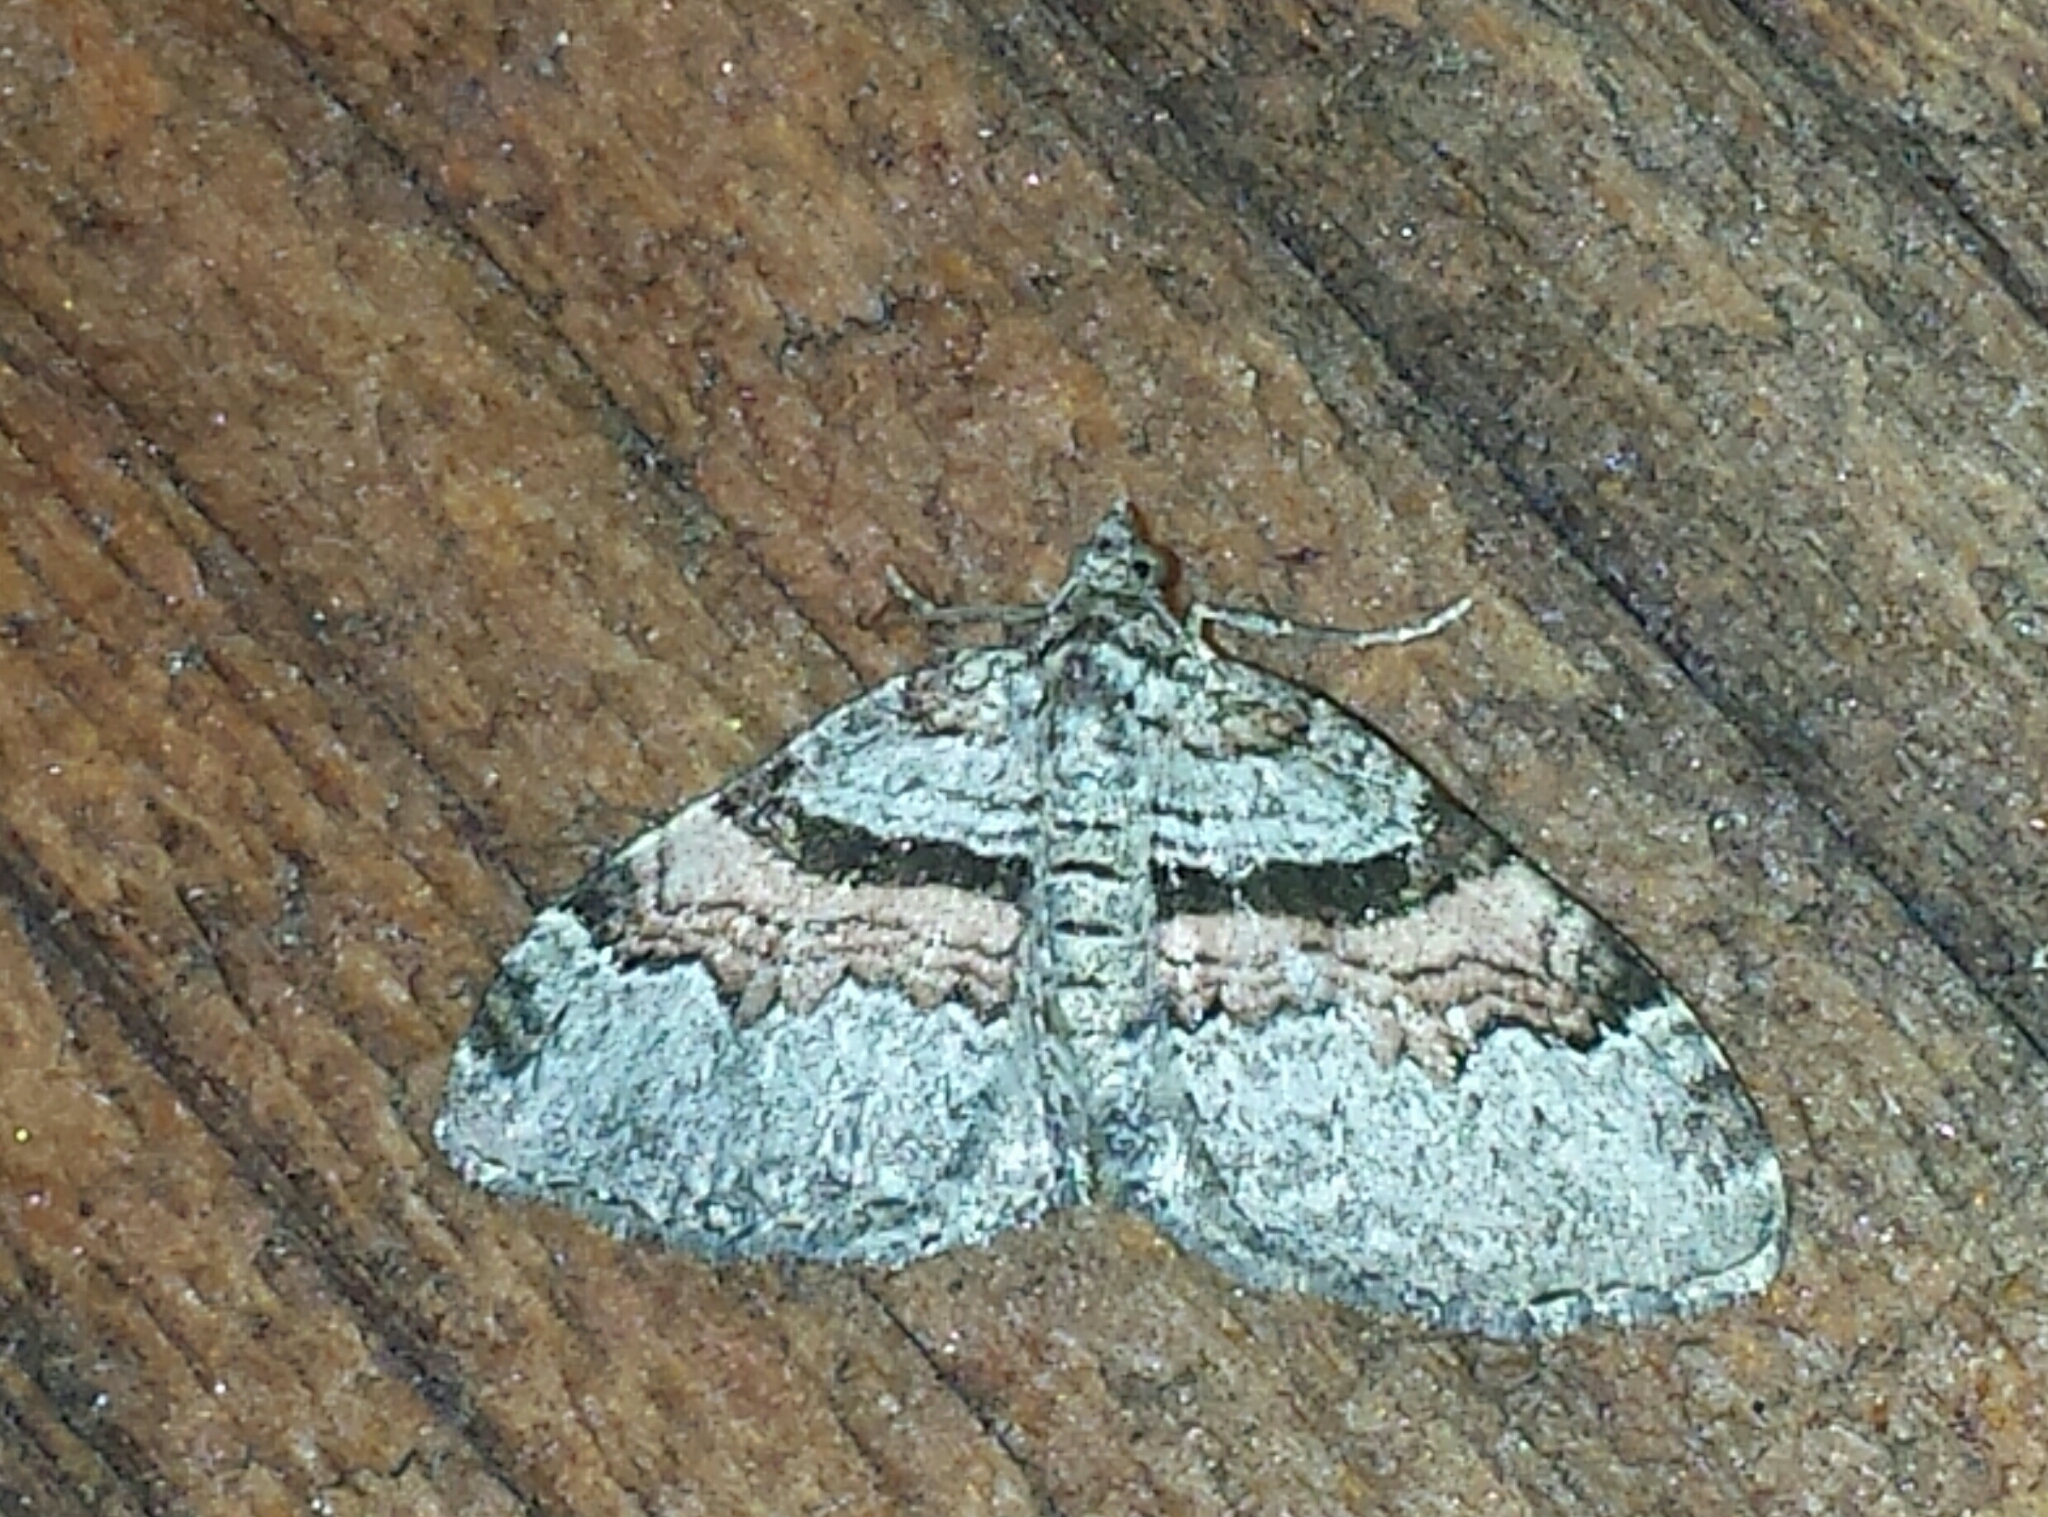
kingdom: Animalia
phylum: Arthropoda
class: Insecta
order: Lepidoptera
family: Geometridae
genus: Xanthorhoe
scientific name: Xanthorhoe labradorensis
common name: Labrador carpet
